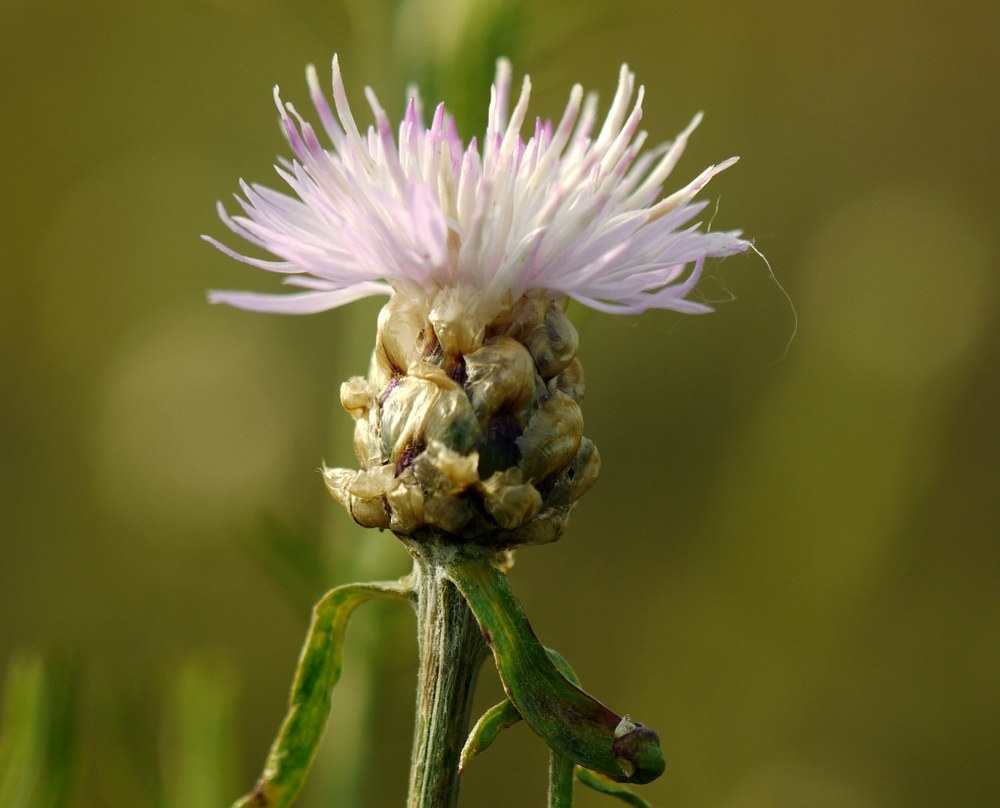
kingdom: Plantae
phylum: Tracheophyta
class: Magnoliopsida
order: Asterales
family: Asteraceae
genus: Centaurea
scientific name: Centaurea protomargaritacea
